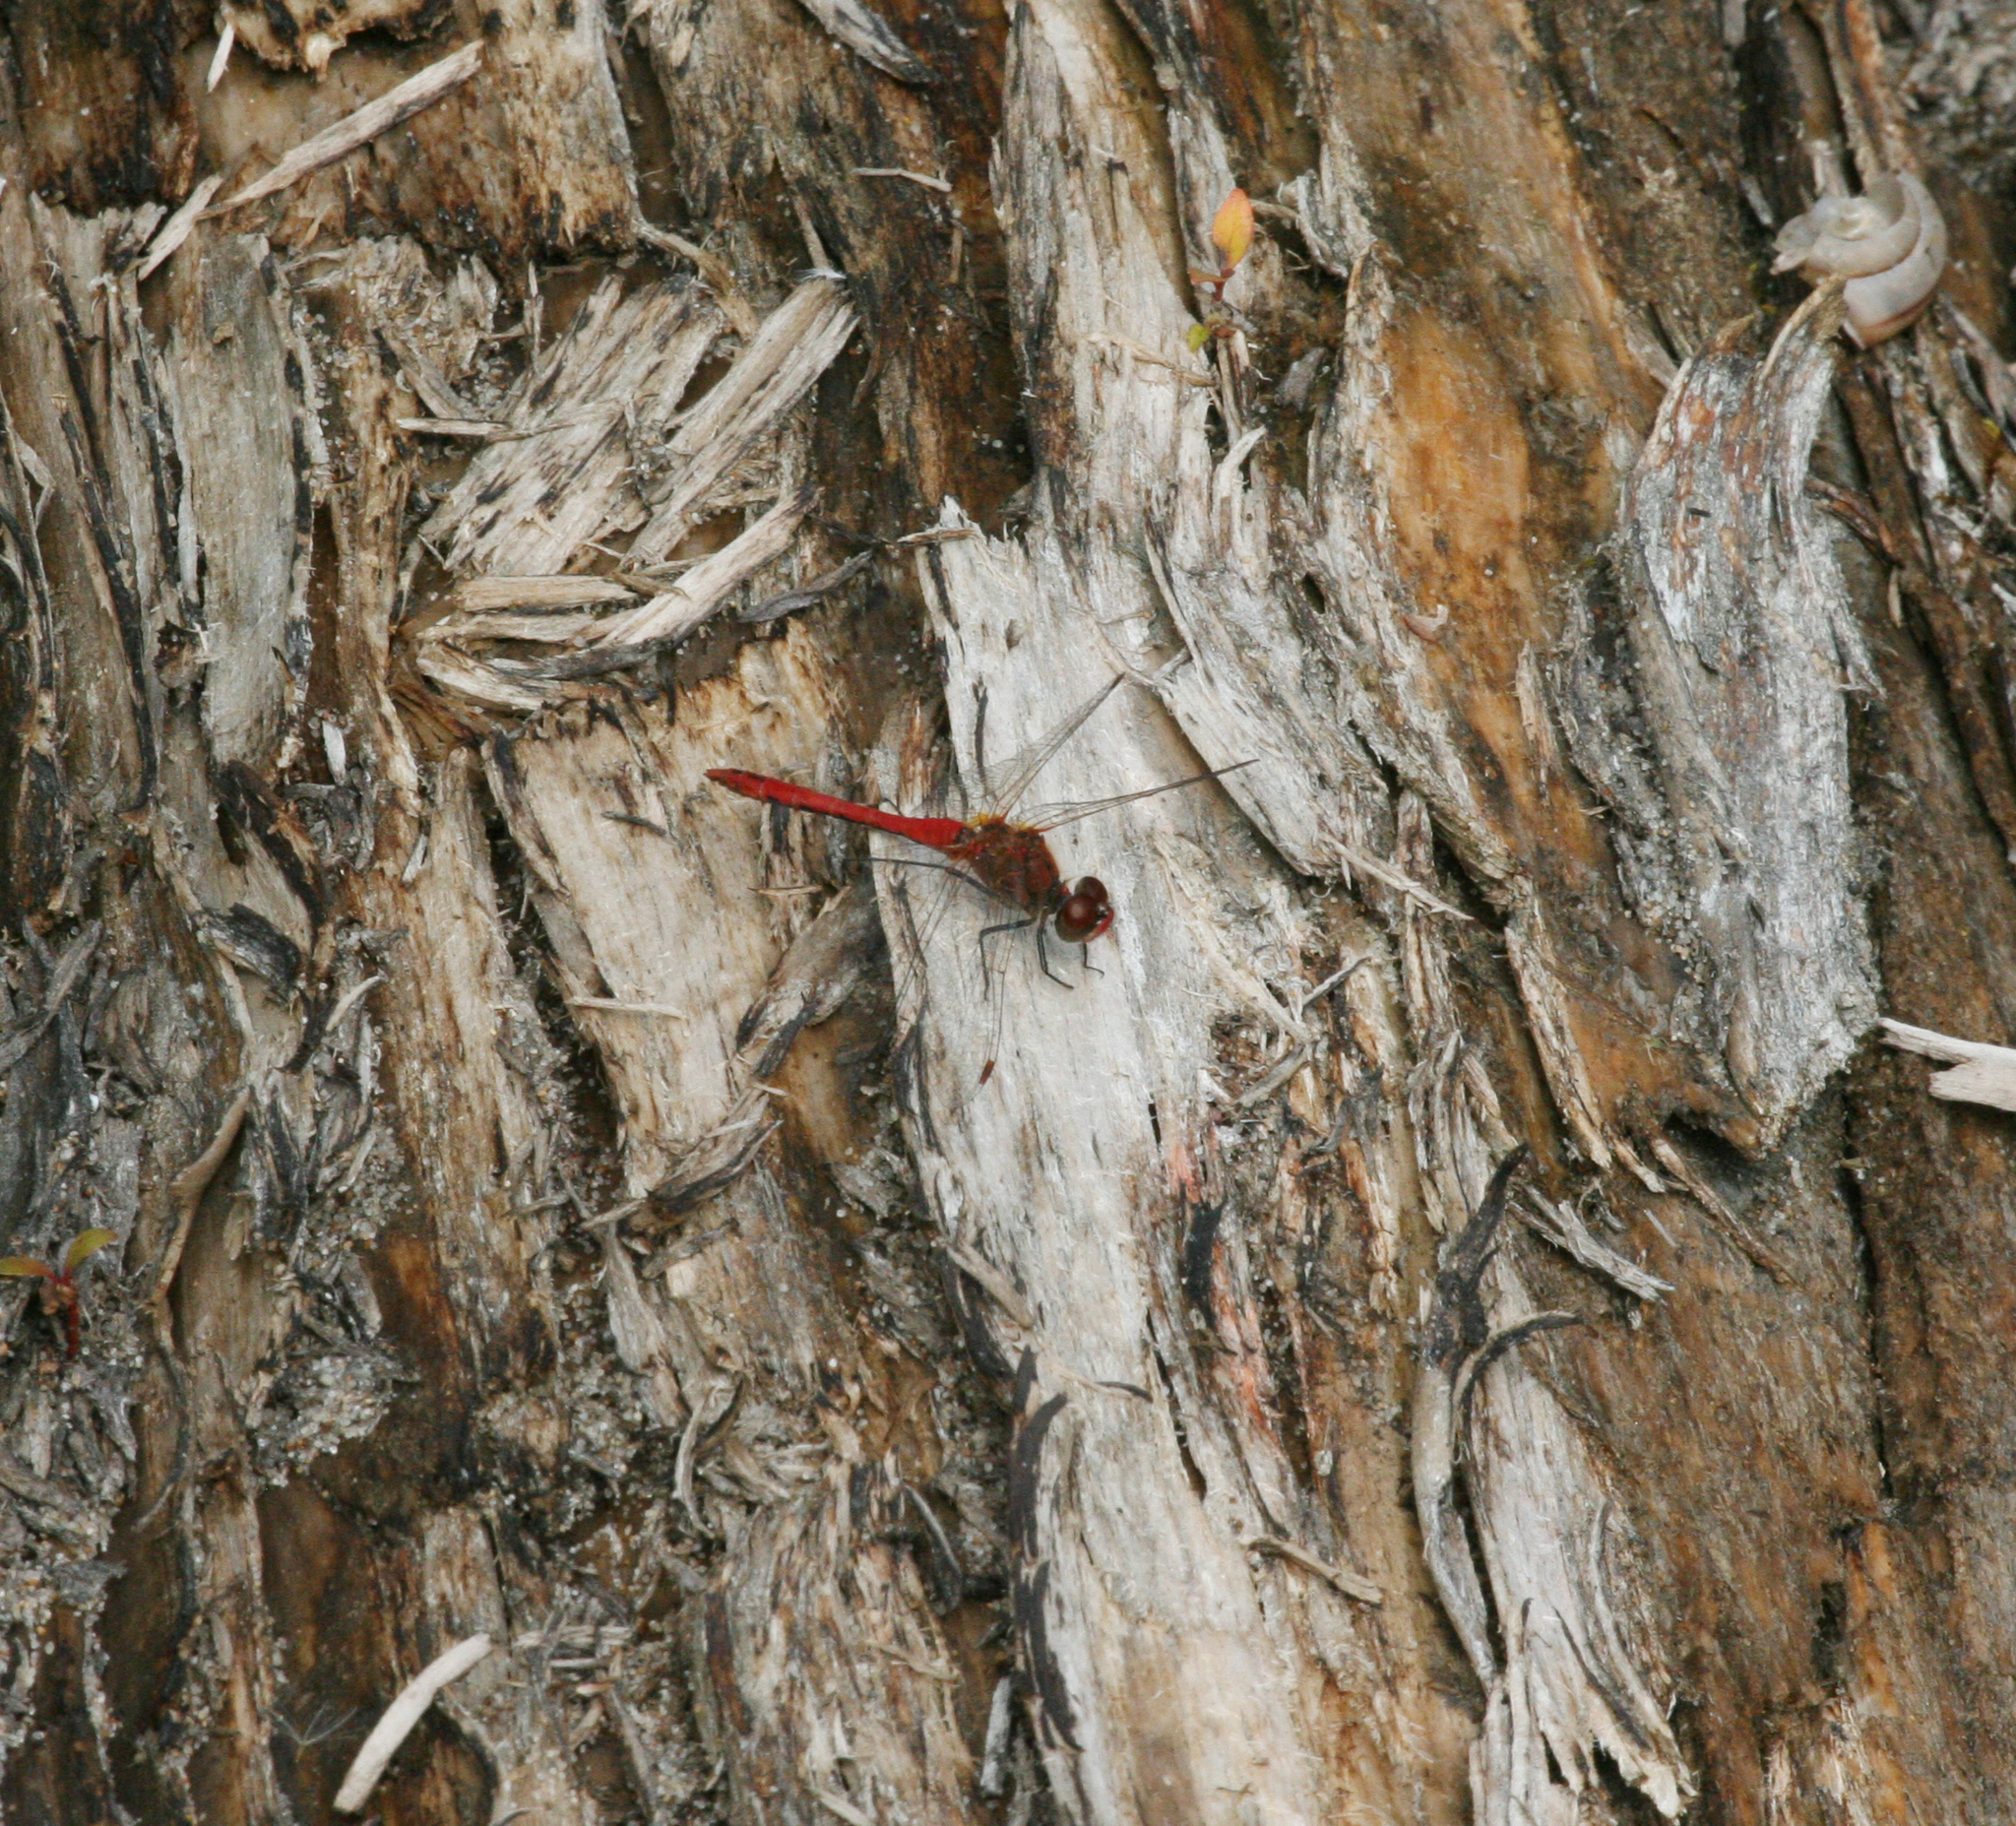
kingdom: Animalia
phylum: Arthropoda
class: Insecta
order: Odonata
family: Libellulidae
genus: Sympetrum
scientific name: Sympetrum sanguineum
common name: Ruddy darter
